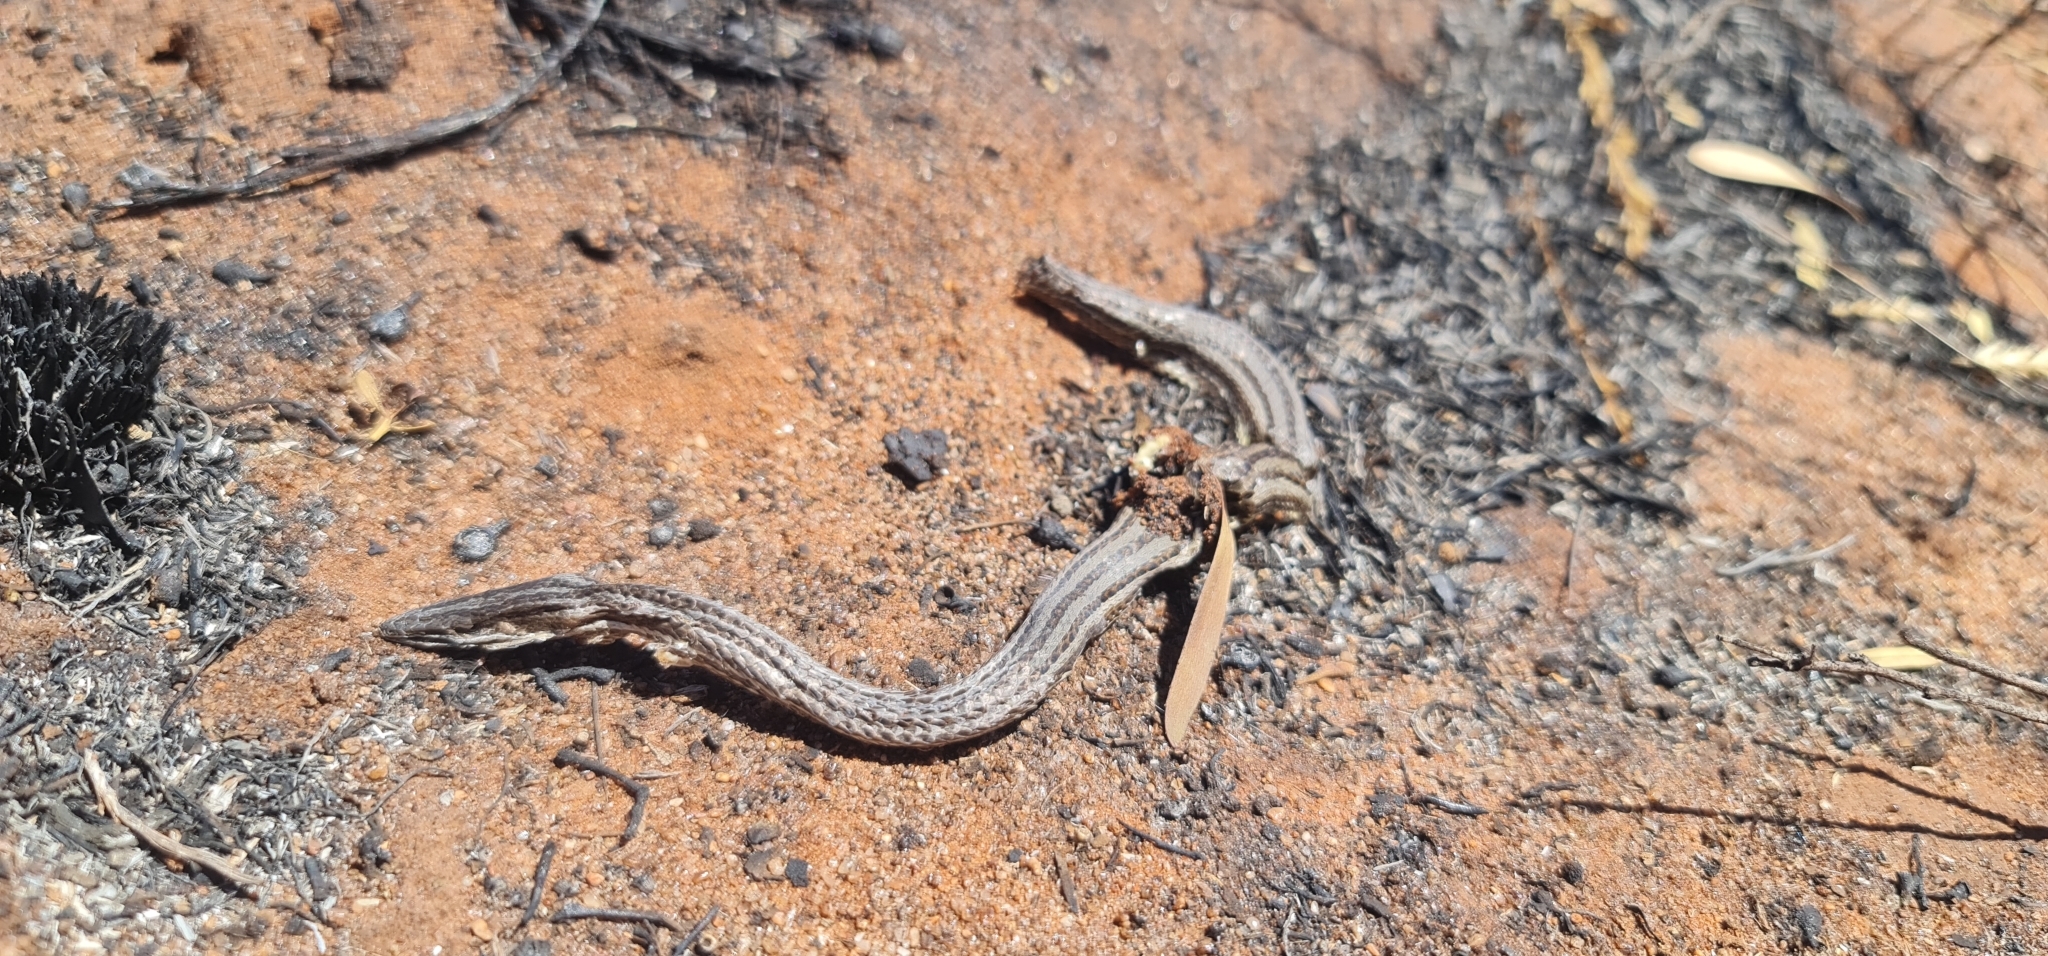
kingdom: Animalia
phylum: Chordata
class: Squamata
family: Pygopodidae
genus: Lialis
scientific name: Lialis burtonis
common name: Burton's legless lizard
